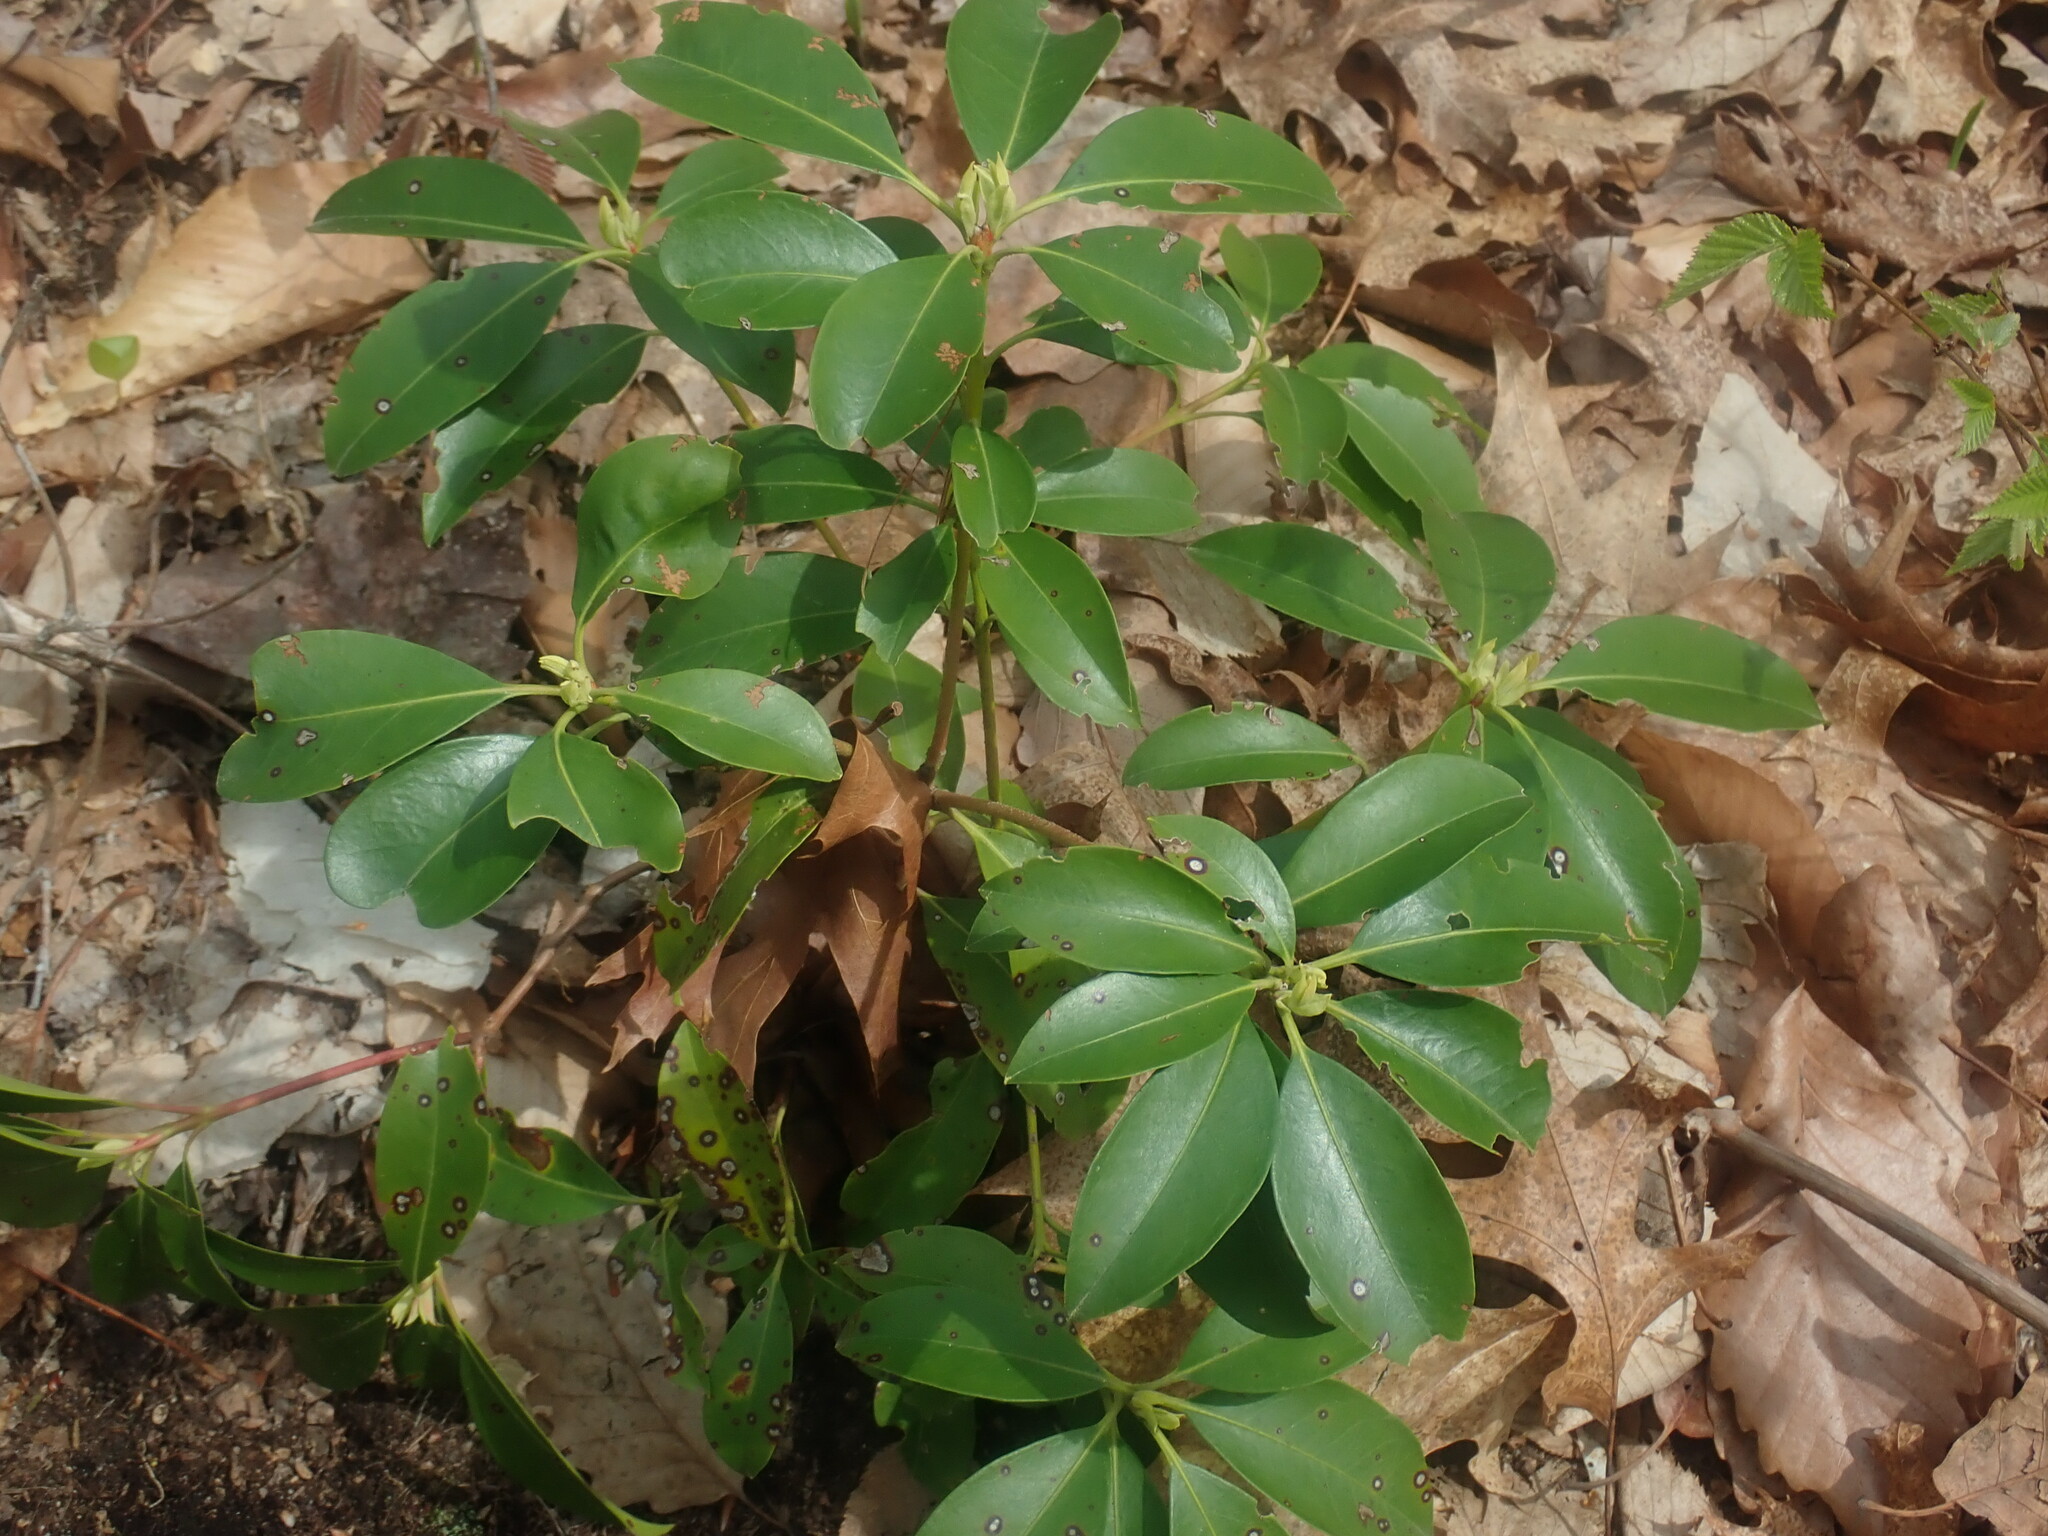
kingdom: Plantae
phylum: Tracheophyta
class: Magnoliopsida
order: Ericales
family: Ericaceae
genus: Kalmia
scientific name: Kalmia latifolia
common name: Mountain-laurel
